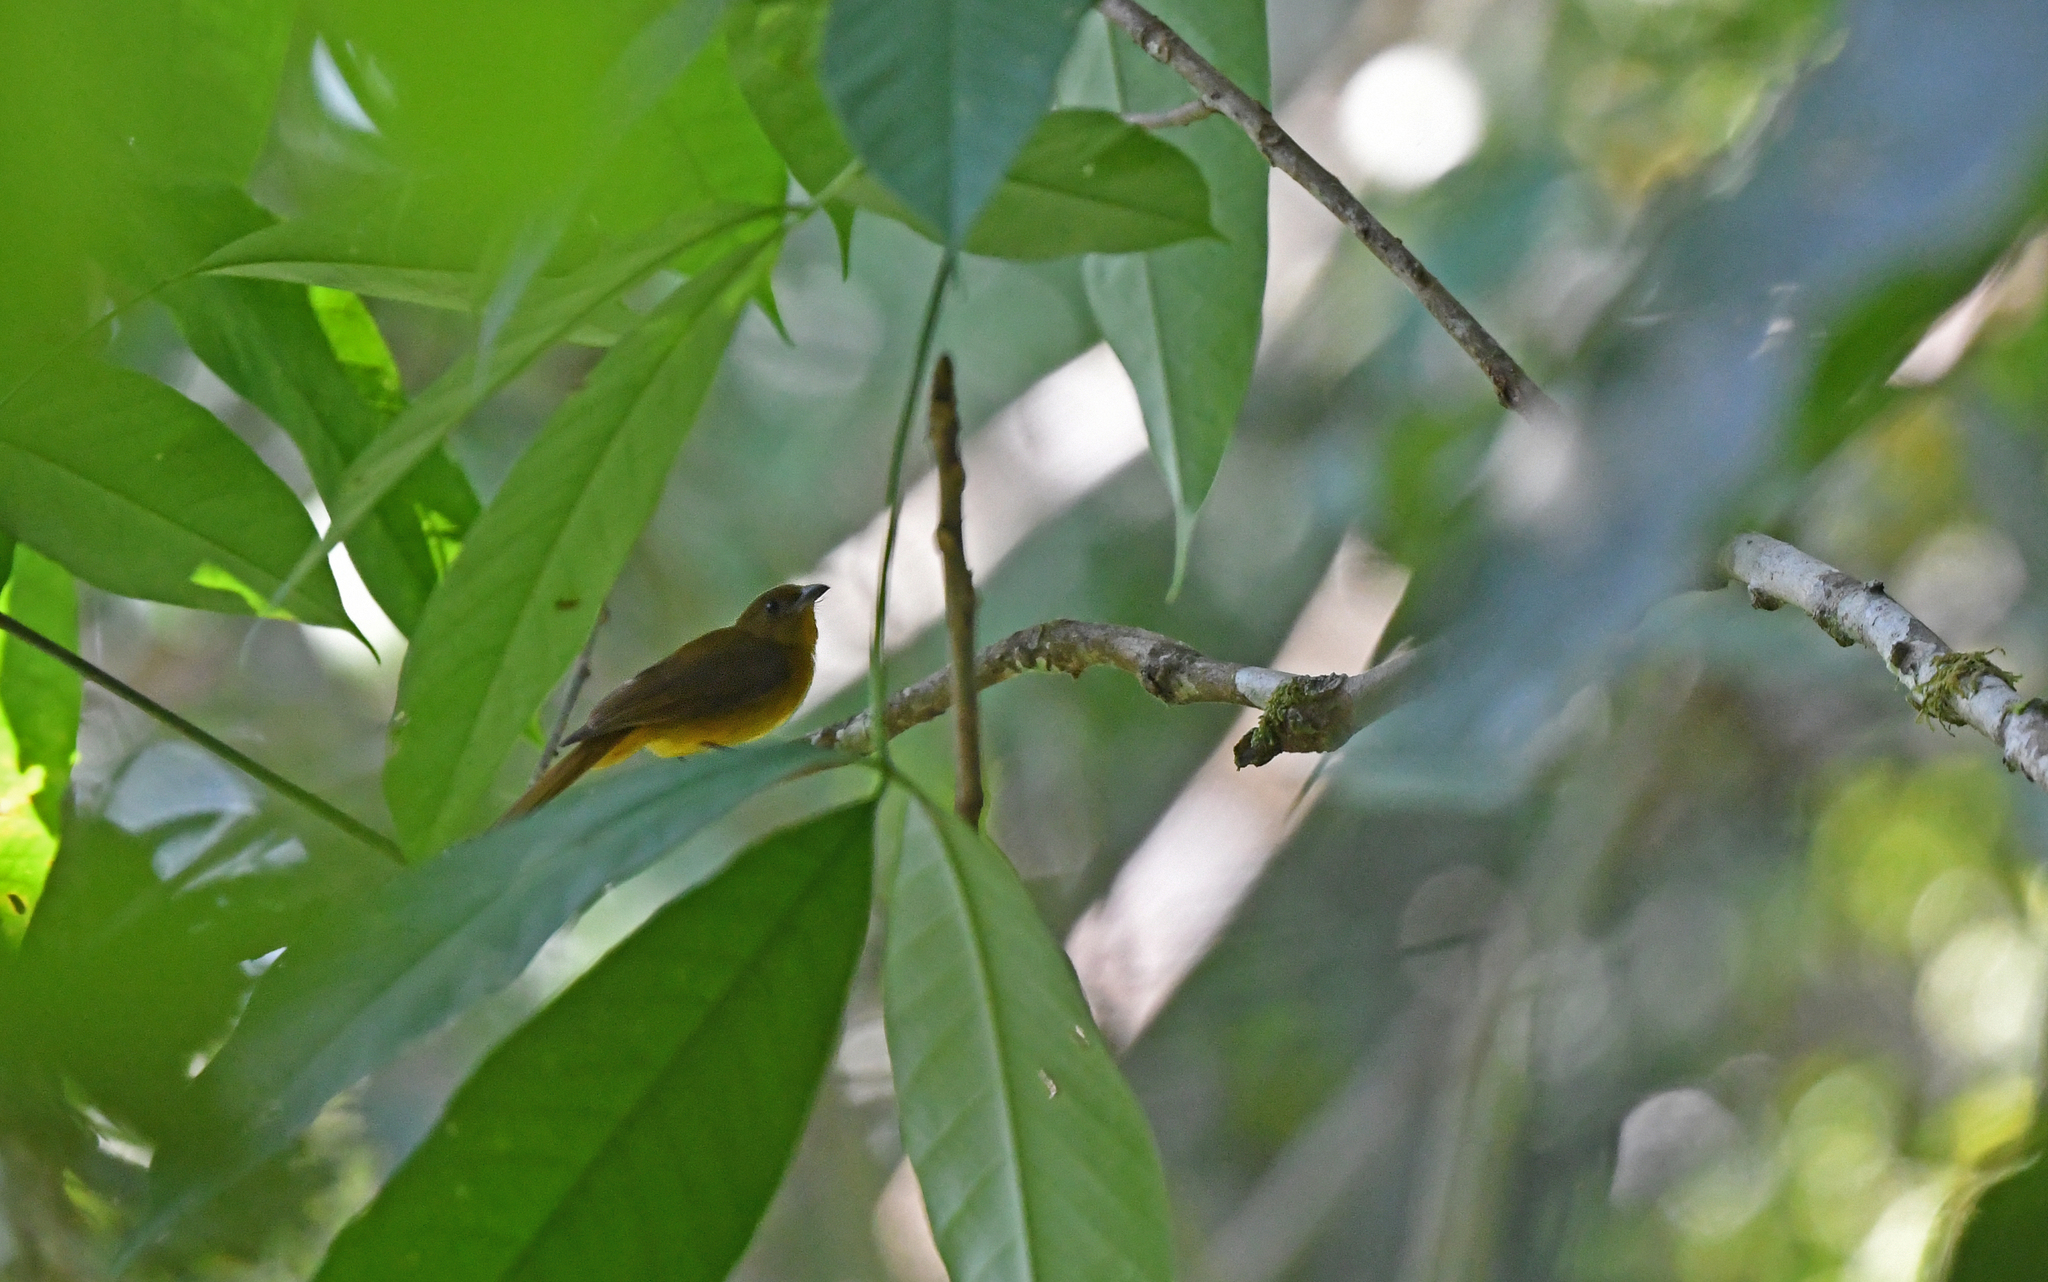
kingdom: Animalia
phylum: Chordata
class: Aves
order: Passeriformes
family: Thraupidae
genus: Lanio
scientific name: Lanio versicolor
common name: White-winged shrike-tanager
